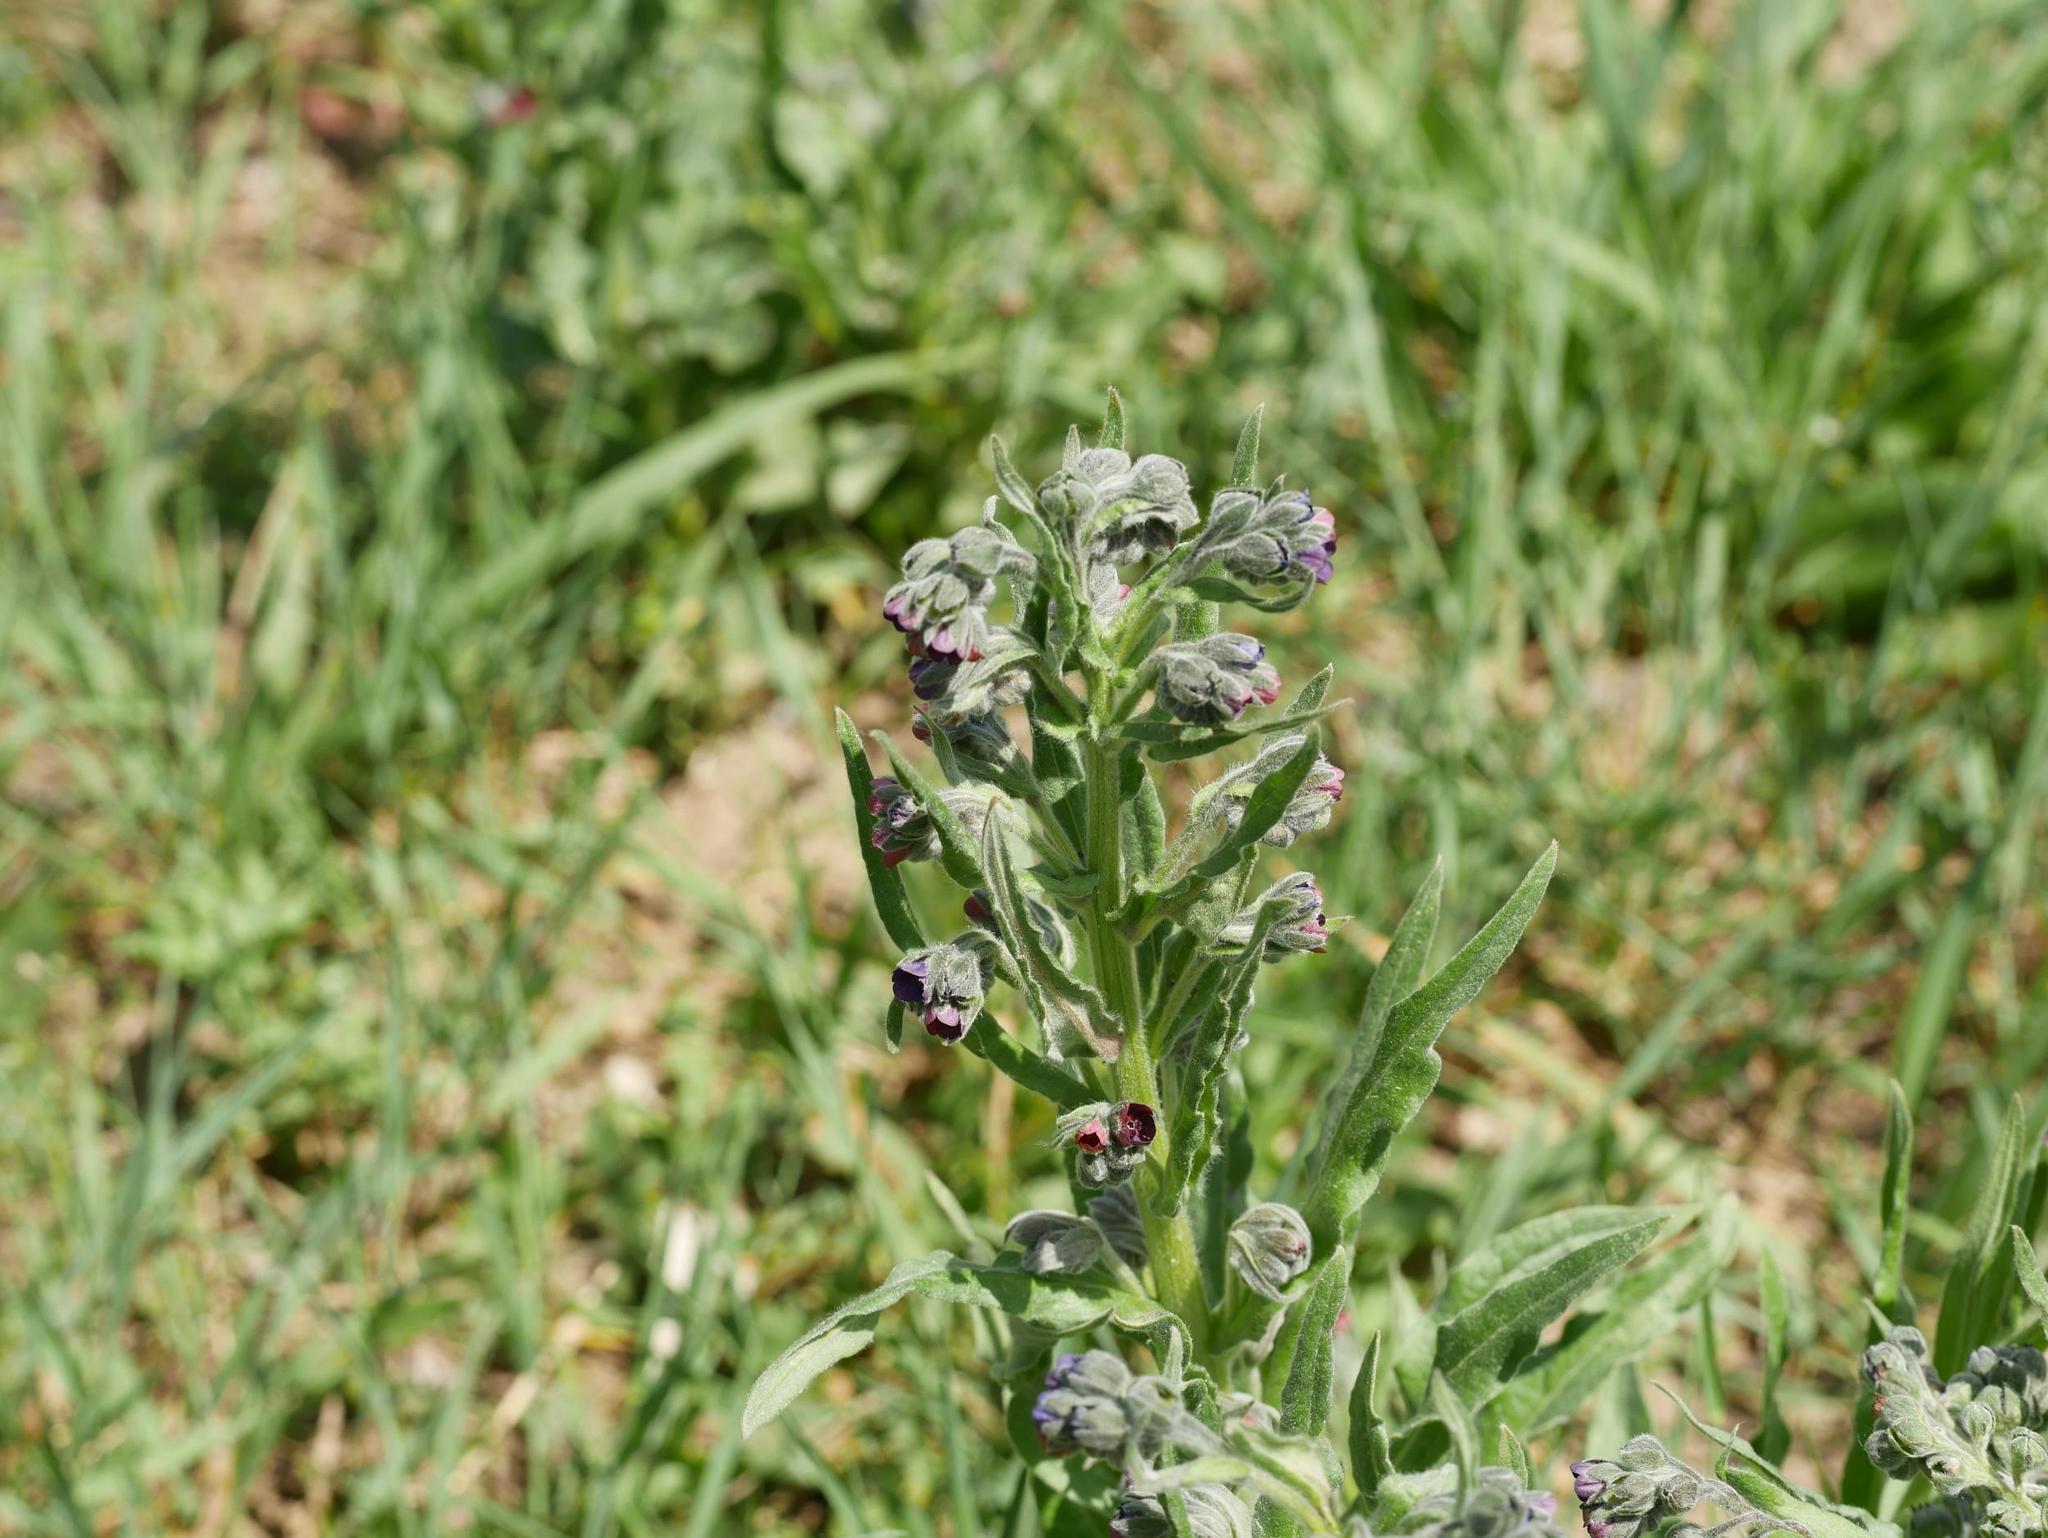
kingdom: Plantae
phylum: Tracheophyta
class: Magnoliopsida
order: Boraginales
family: Boraginaceae
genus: Cynoglossum
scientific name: Cynoglossum officinale
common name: Hound's-tongue
